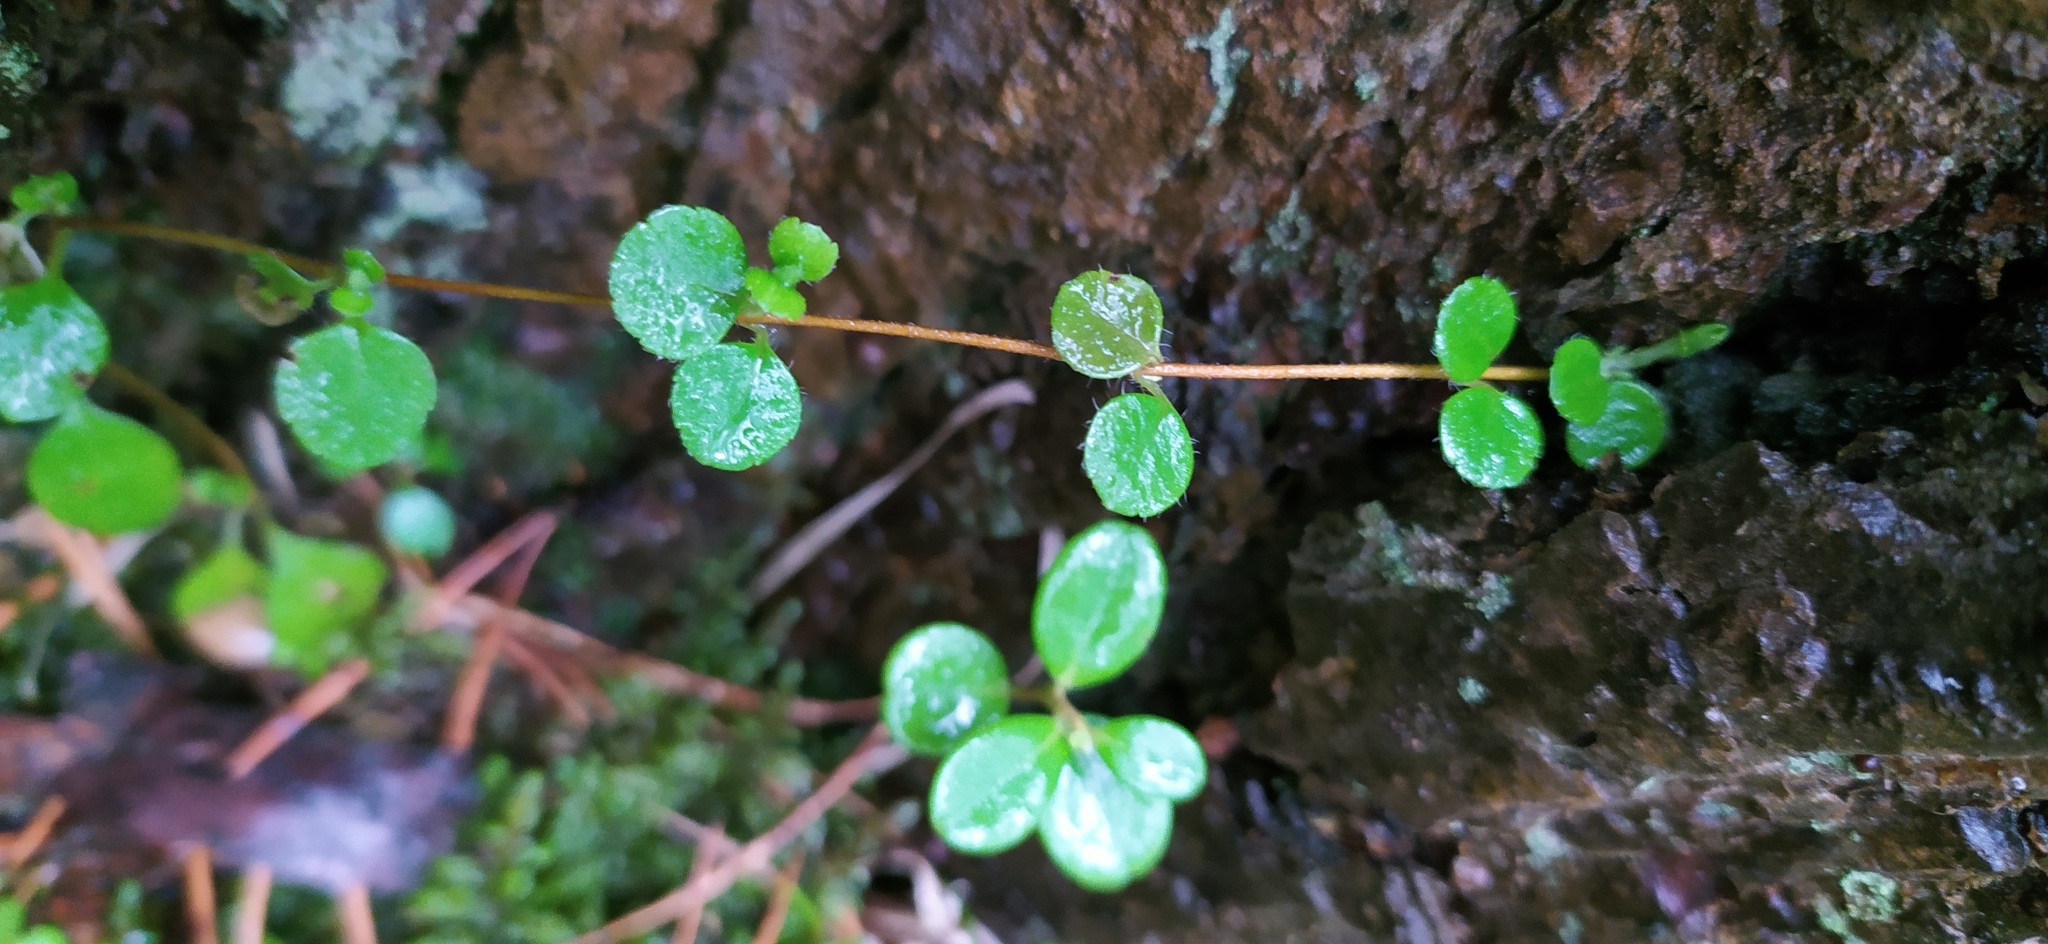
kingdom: Plantae
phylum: Tracheophyta
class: Magnoliopsida
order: Dipsacales
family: Caprifoliaceae
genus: Linnaea
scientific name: Linnaea borealis
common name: Twinflower
